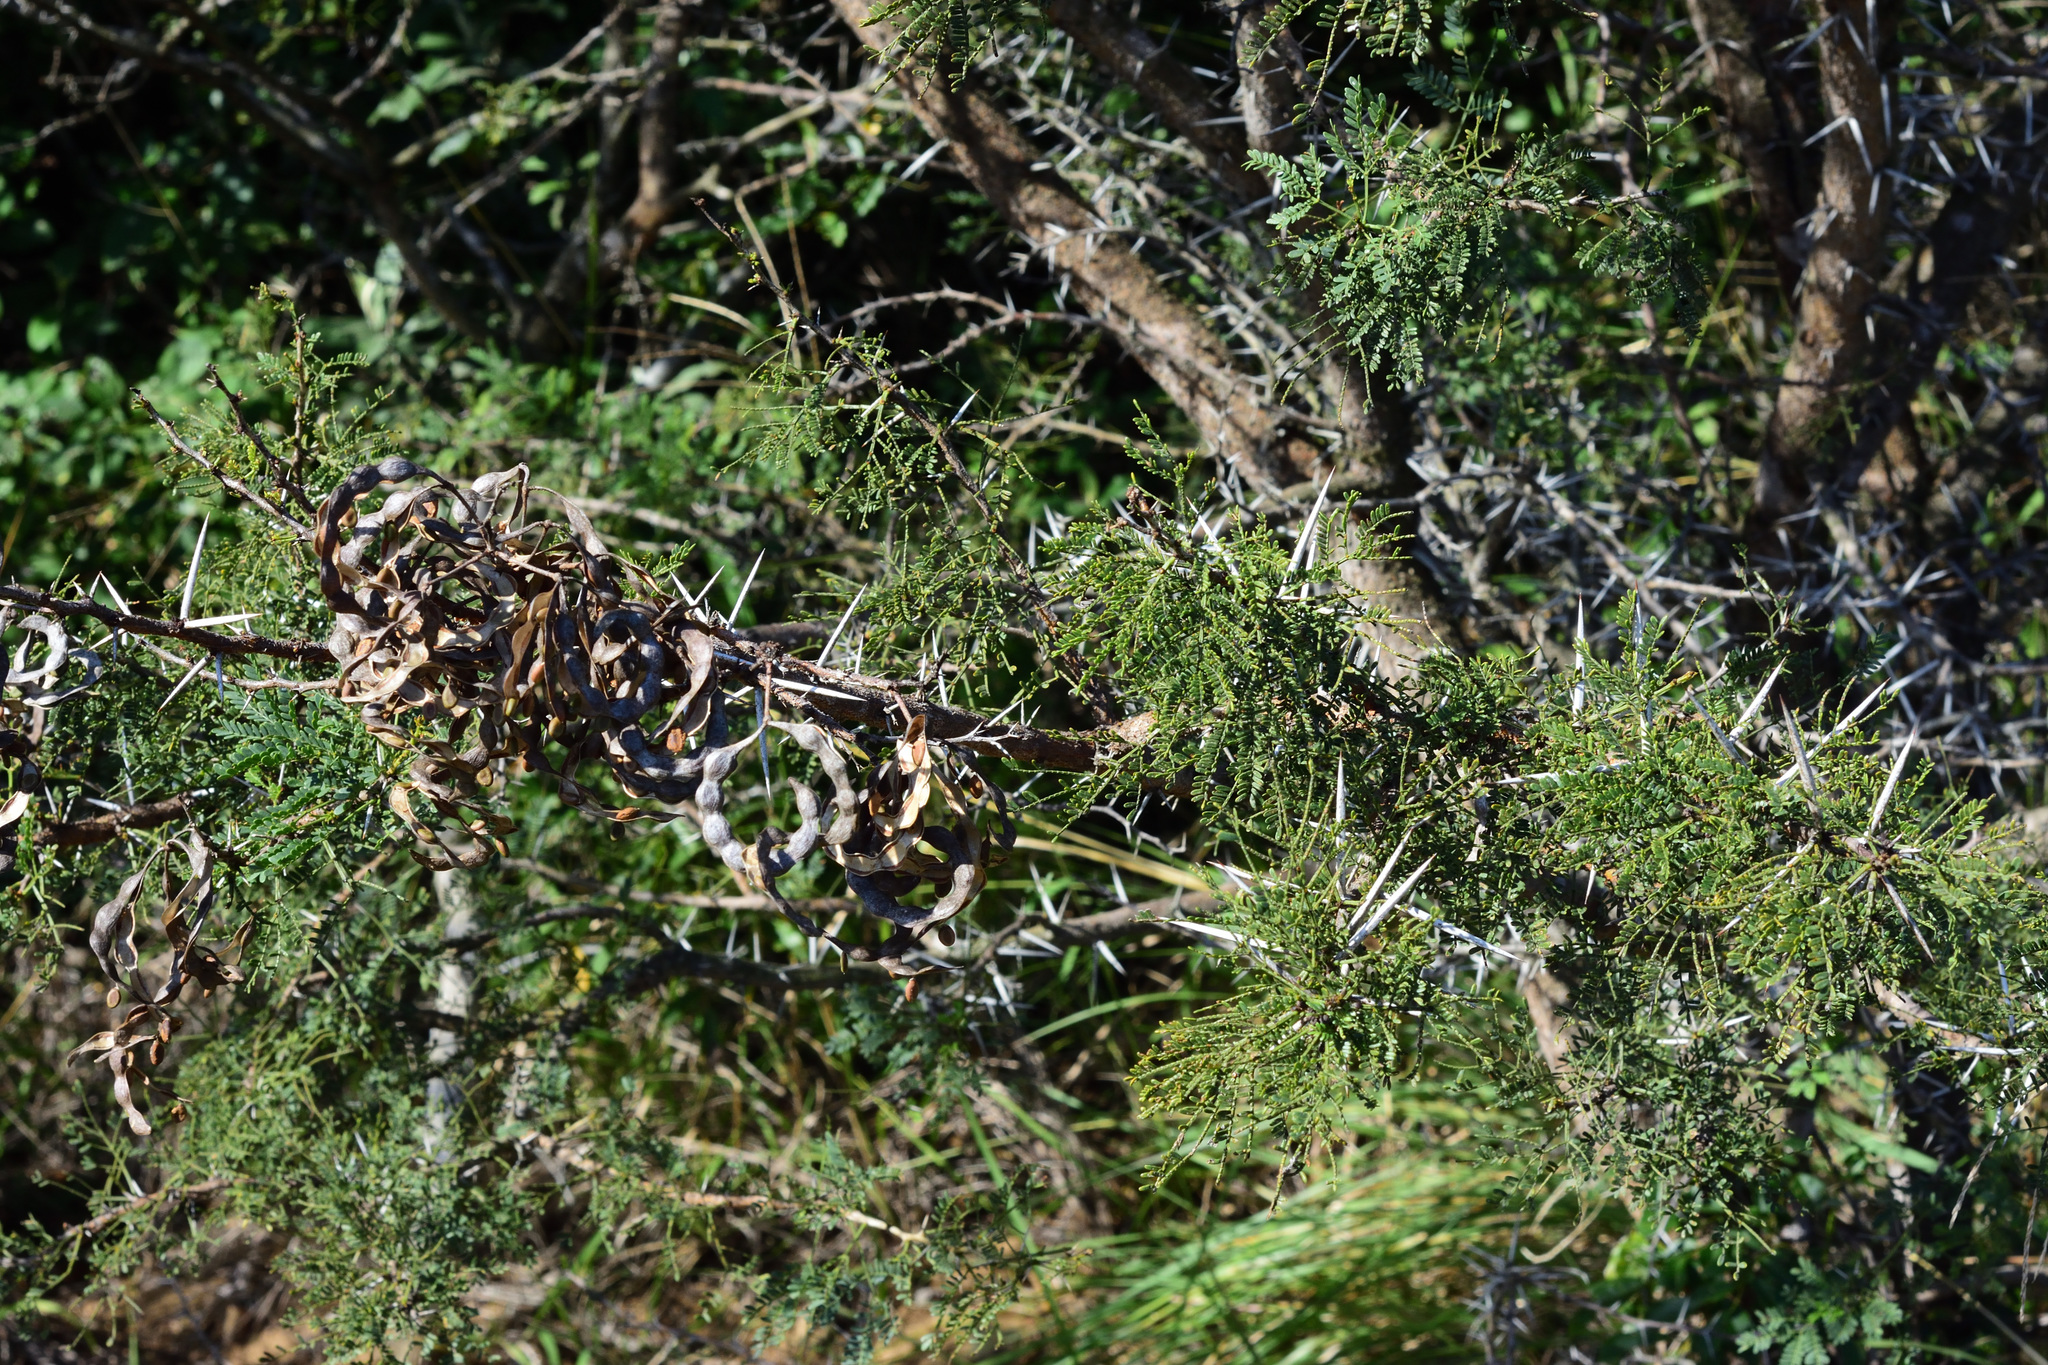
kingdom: Plantae
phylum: Tracheophyta
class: Magnoliopsida
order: Fabales
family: Fabaceae
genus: Vachellia
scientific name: Vachellia karroo
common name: Sweet thorn
